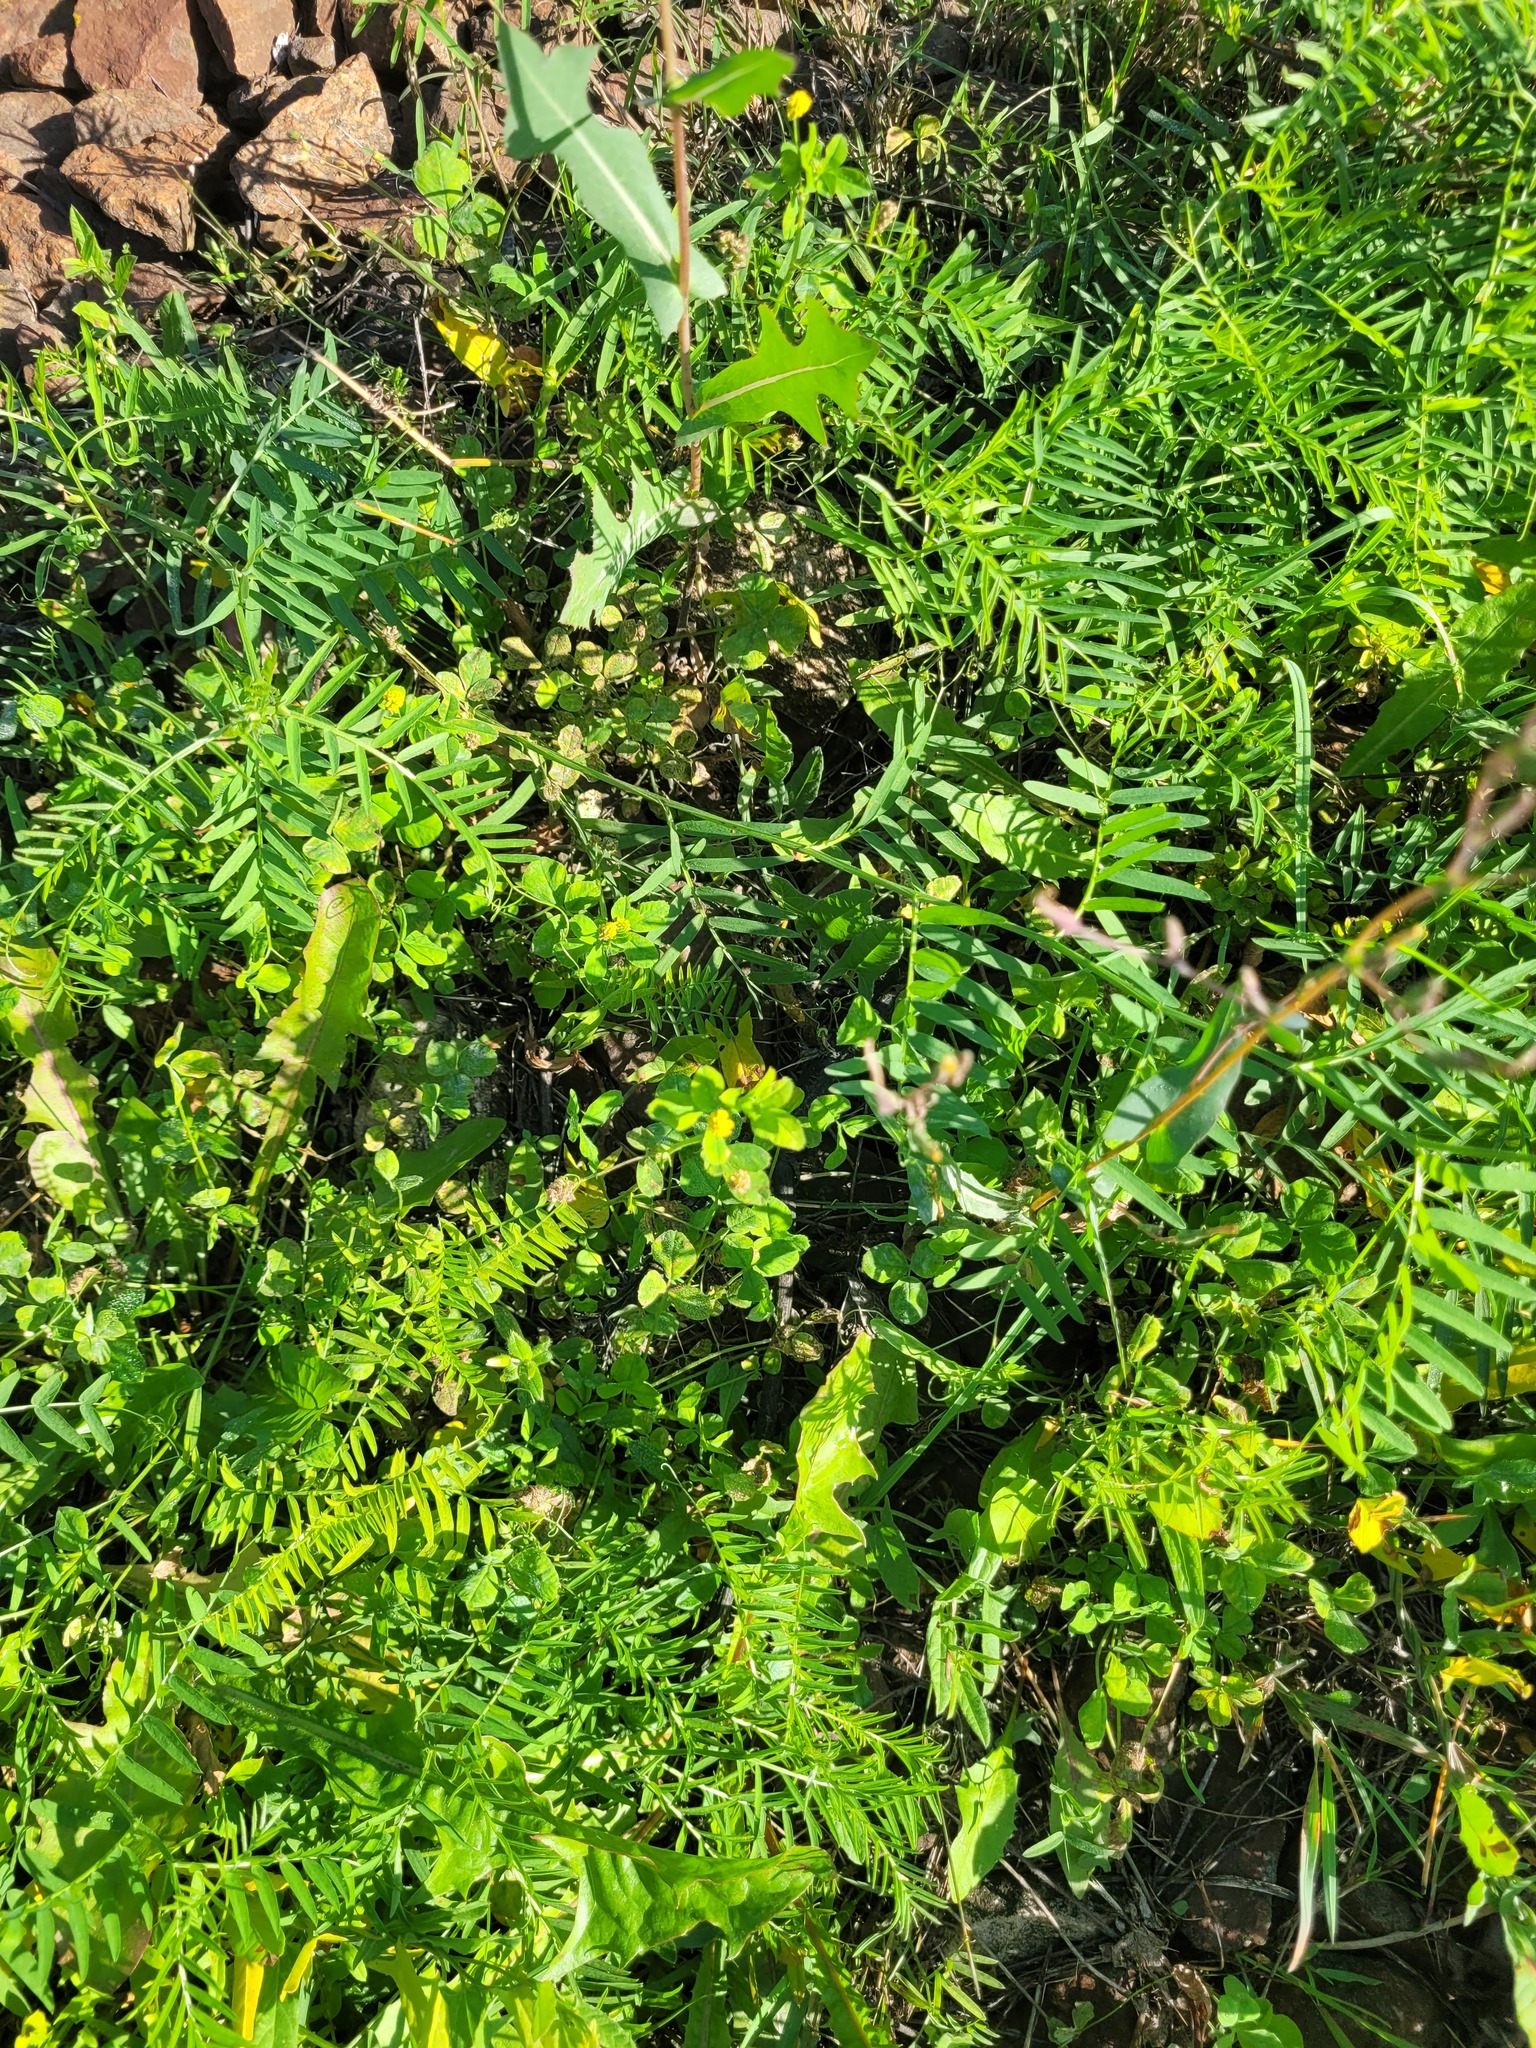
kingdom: Plantae
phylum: Tracheophyta
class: Magnoliopsida
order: Fabales
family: Fabaceae
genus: Medicago
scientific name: Medicago lupulina
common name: Black medick
